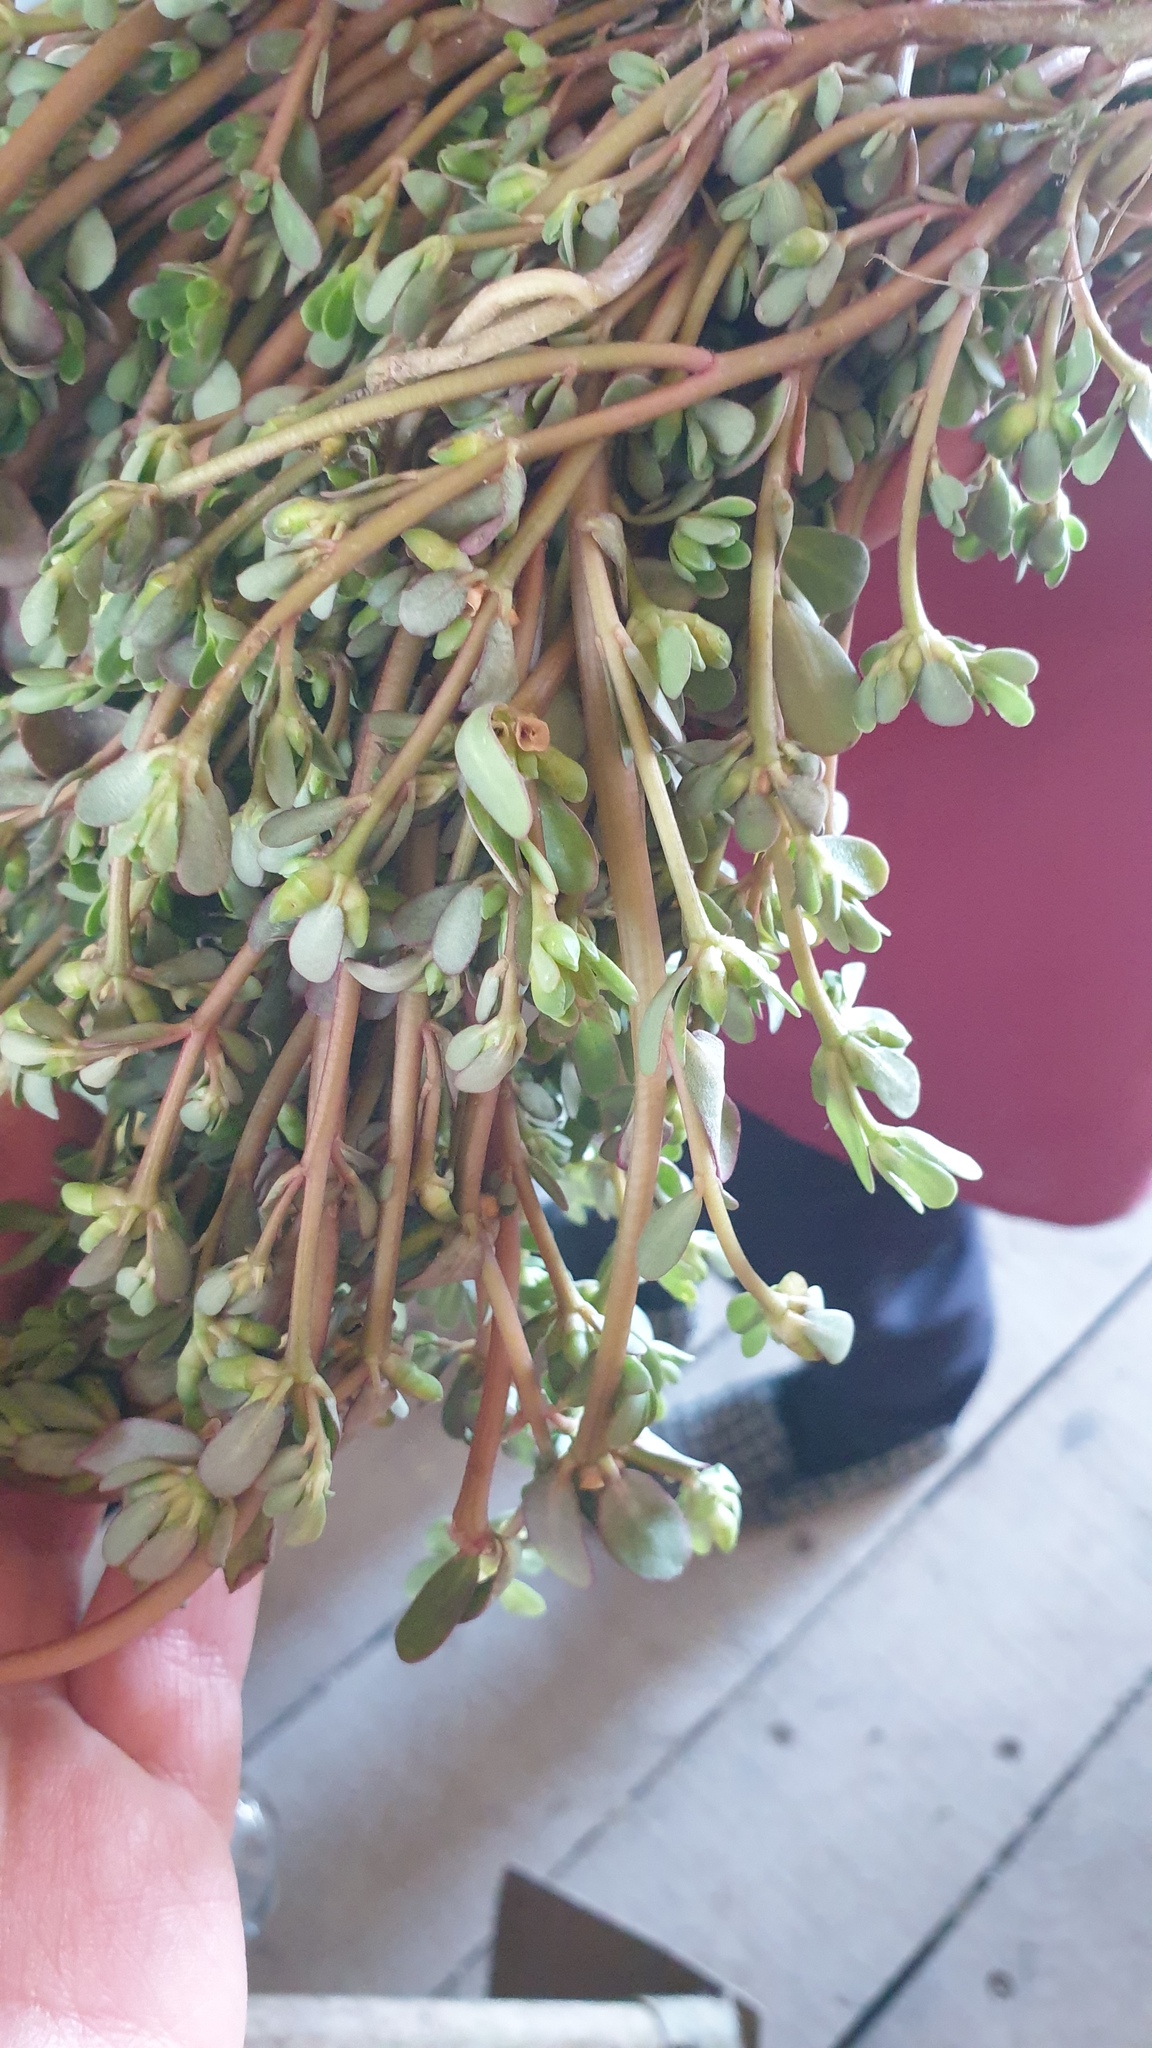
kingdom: Plantae
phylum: Tracheophyta
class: Magnoliopsida
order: Caryophyllales
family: Portulacaceae
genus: Portulaca
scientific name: Portulaca oleracea
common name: Common purslane
